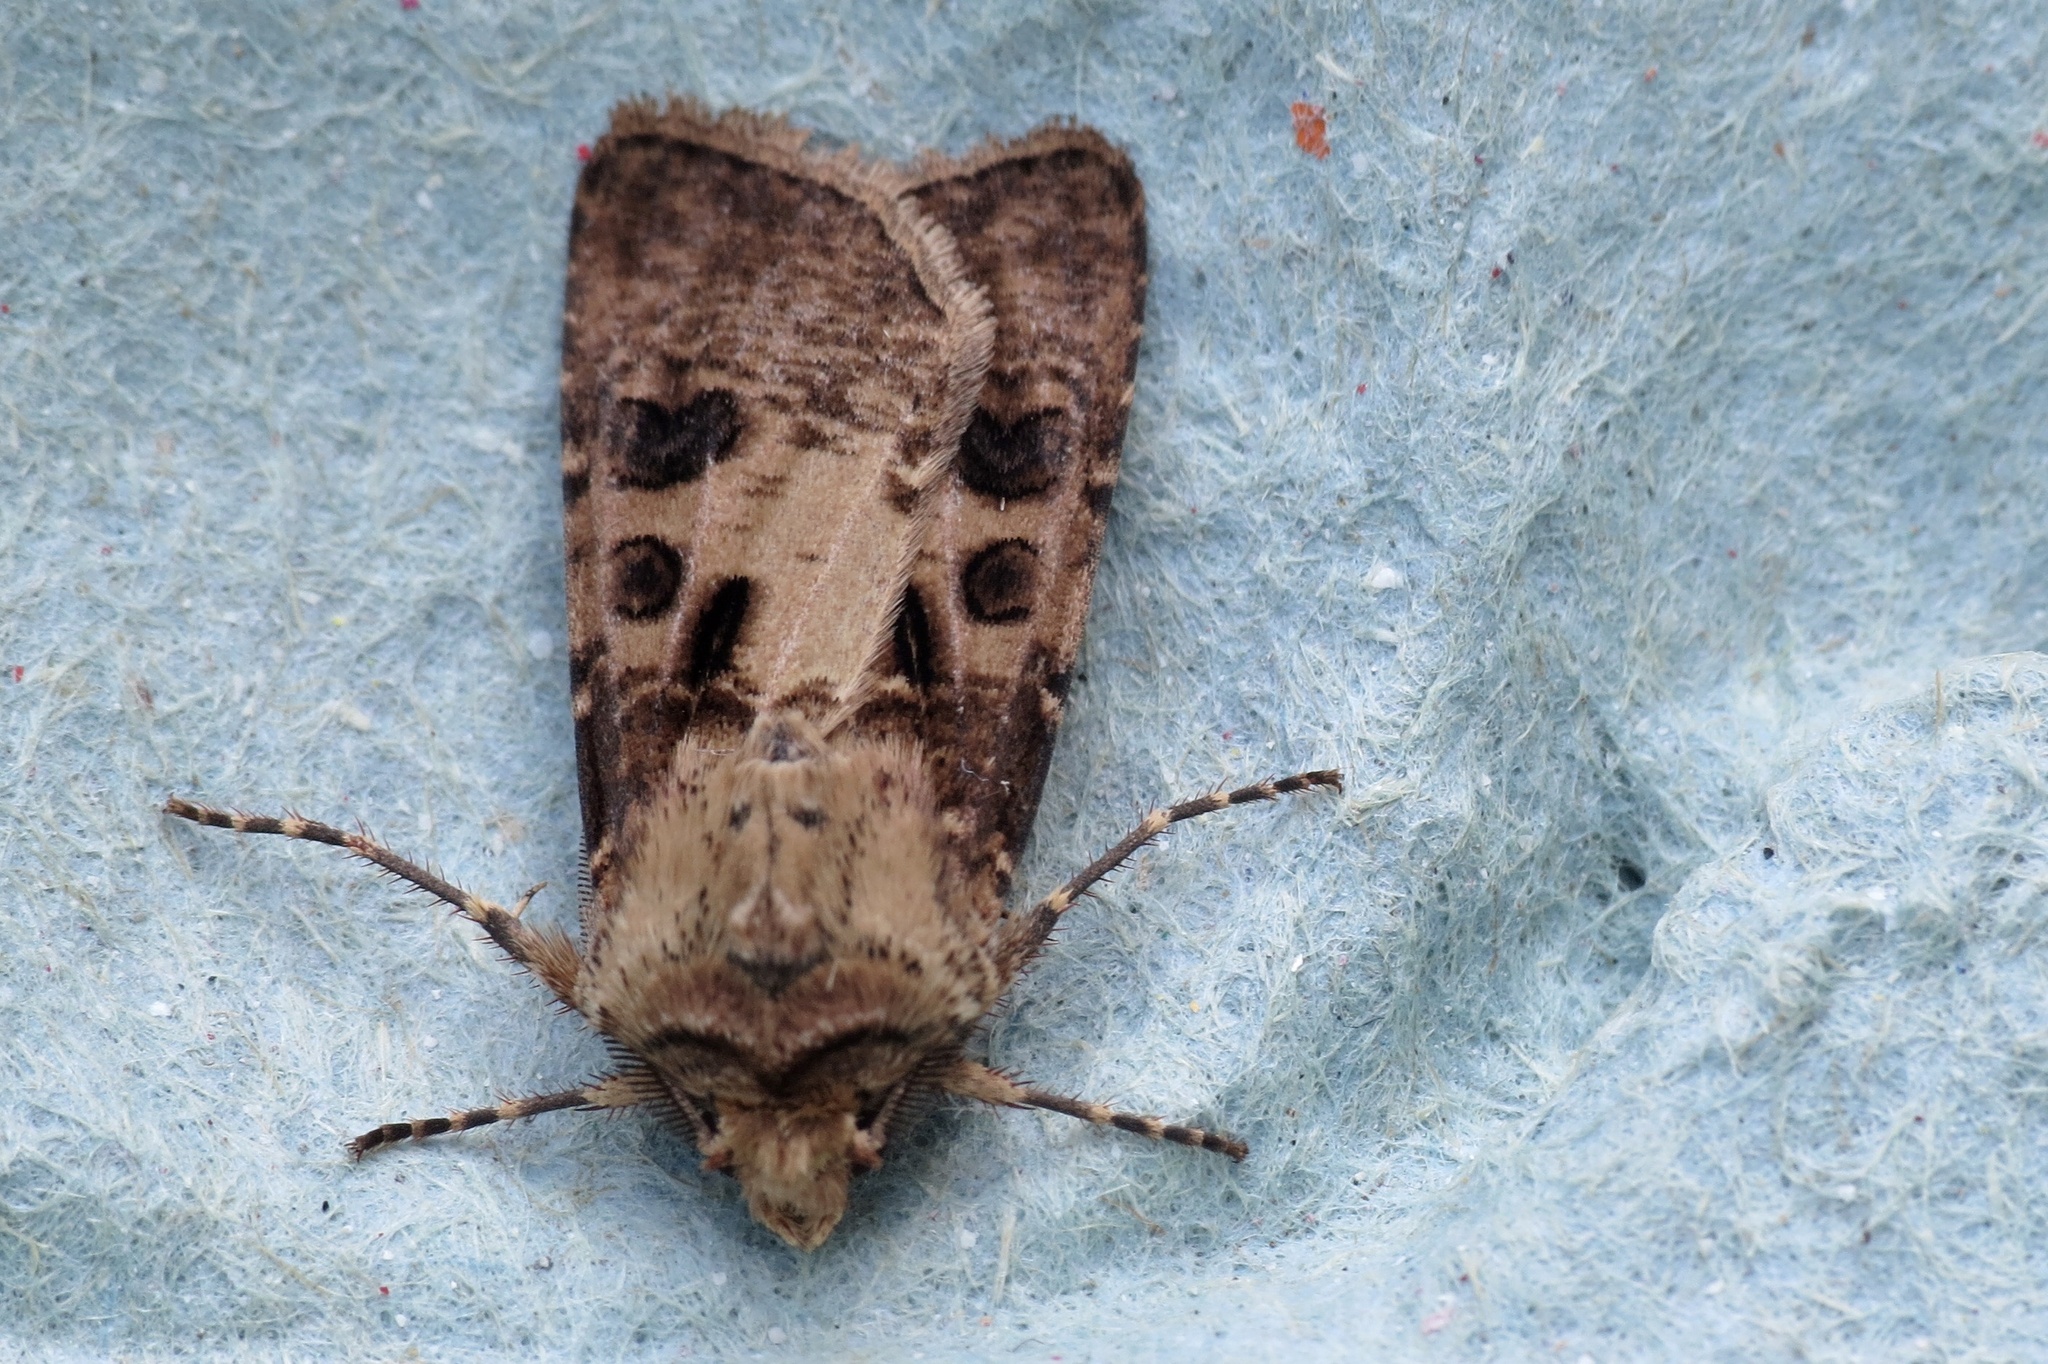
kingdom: Animalia
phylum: Arthropoda
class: Insecta
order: Lepidoptera
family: Noctuidae
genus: Agrotis
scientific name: Agrotis clavis
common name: Heart and club
